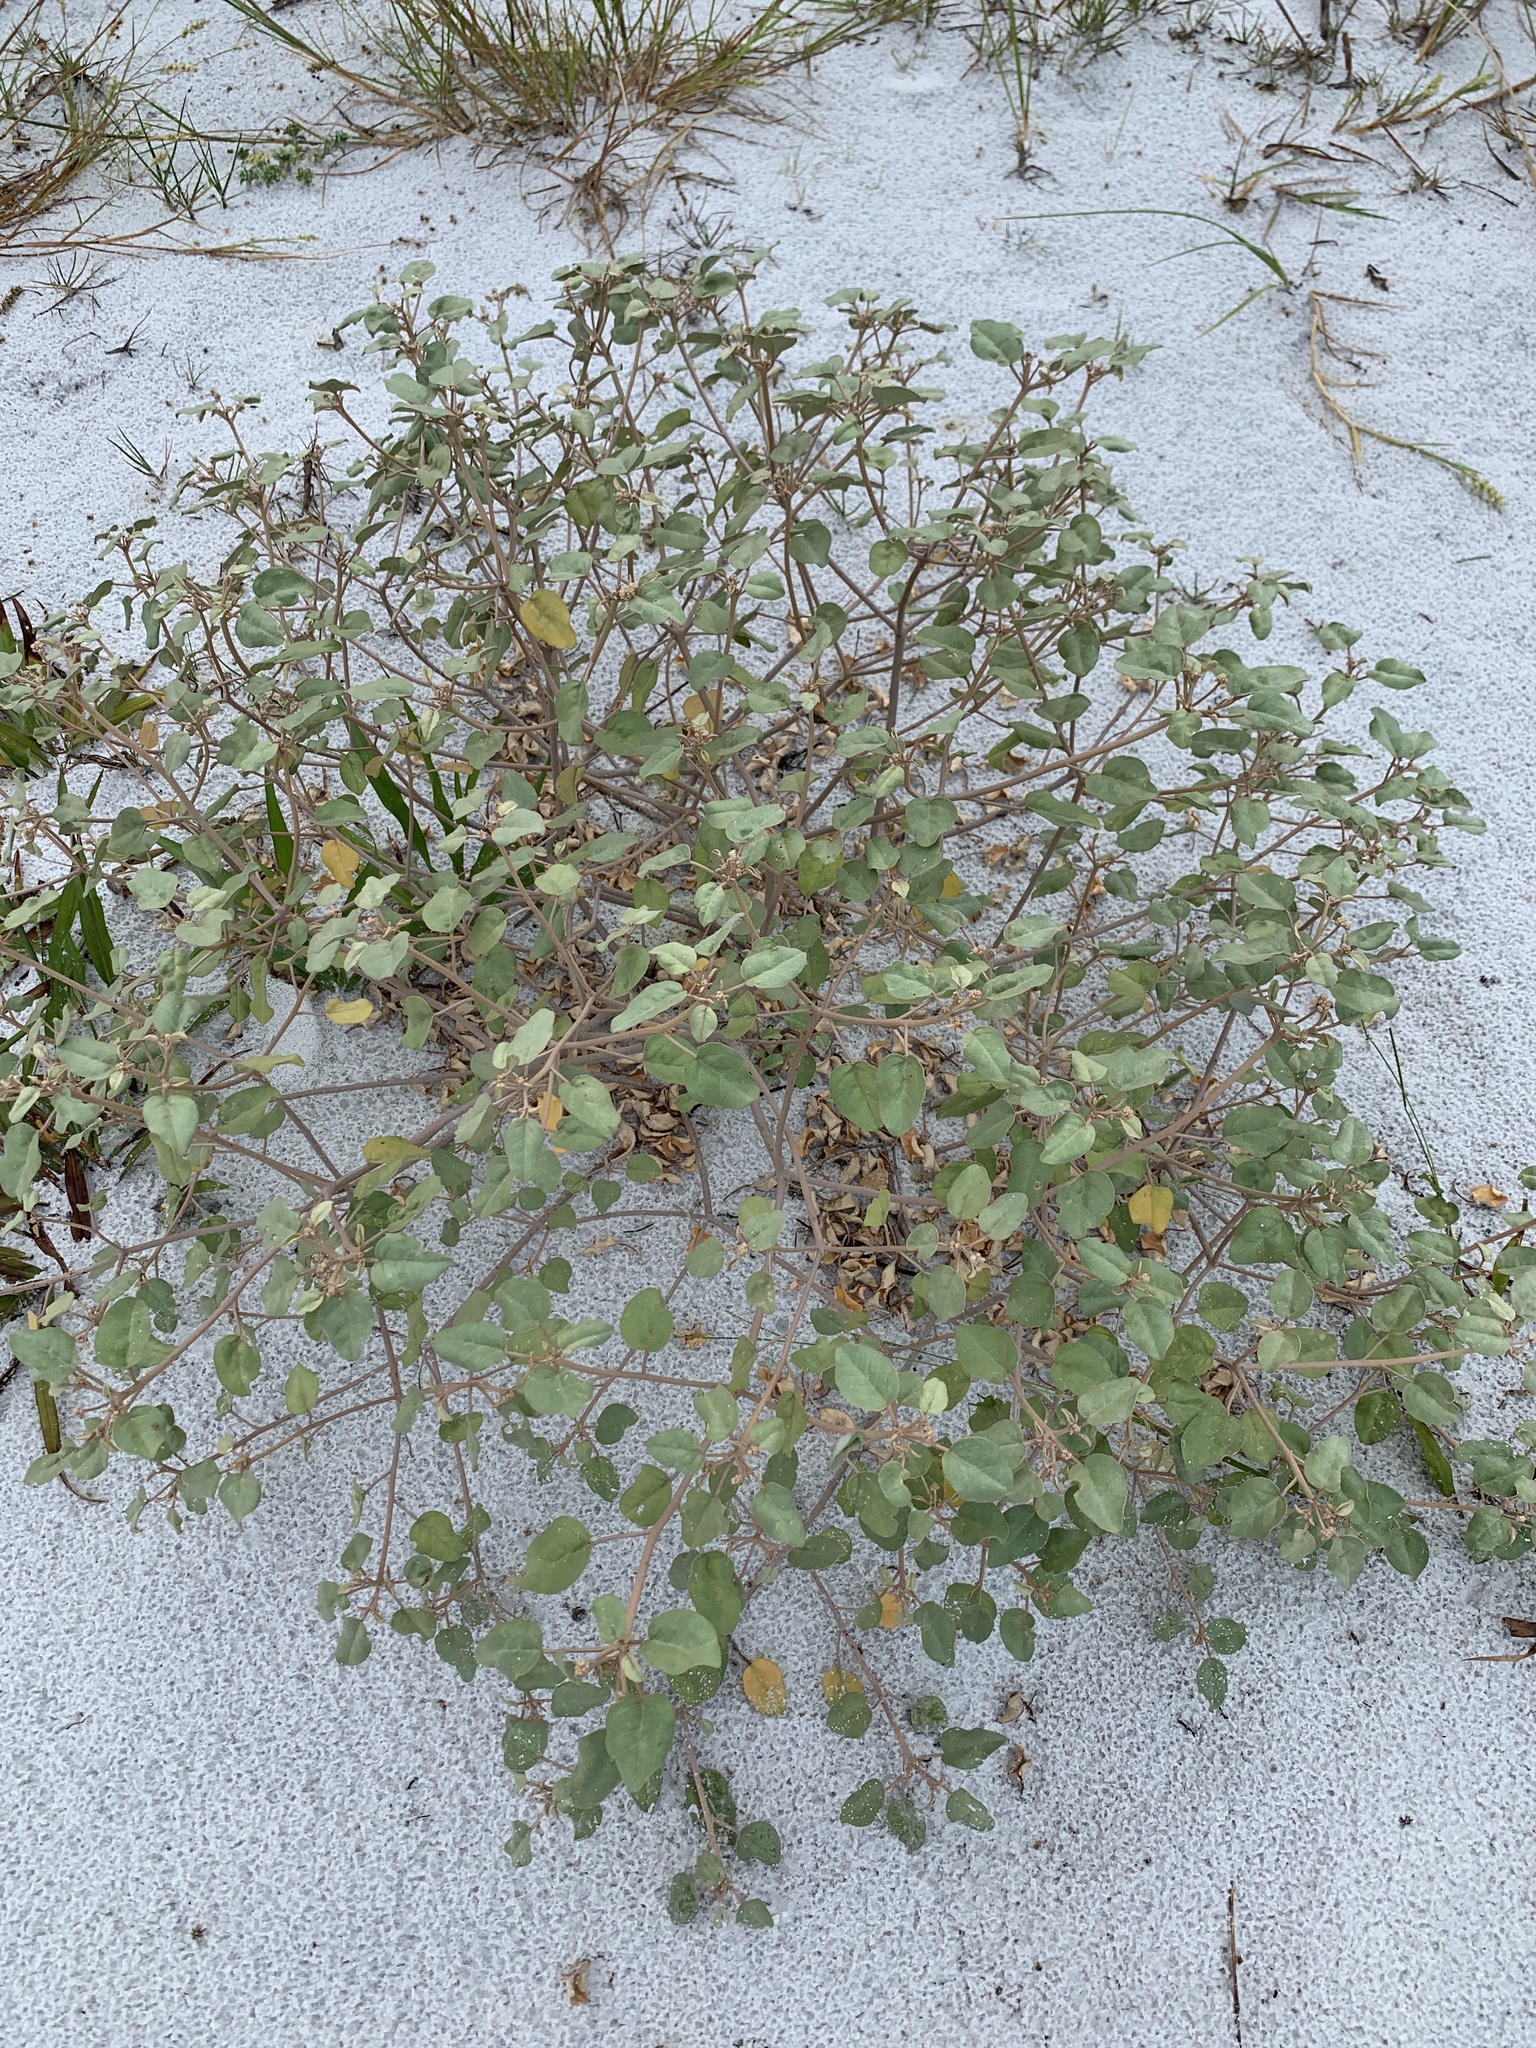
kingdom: Plantae
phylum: Tracheophyta
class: Magnoliopsida
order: Malpighiales
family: Euphorbiaceae
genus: Croton
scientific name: Croton punctatus
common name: Beach-tea
